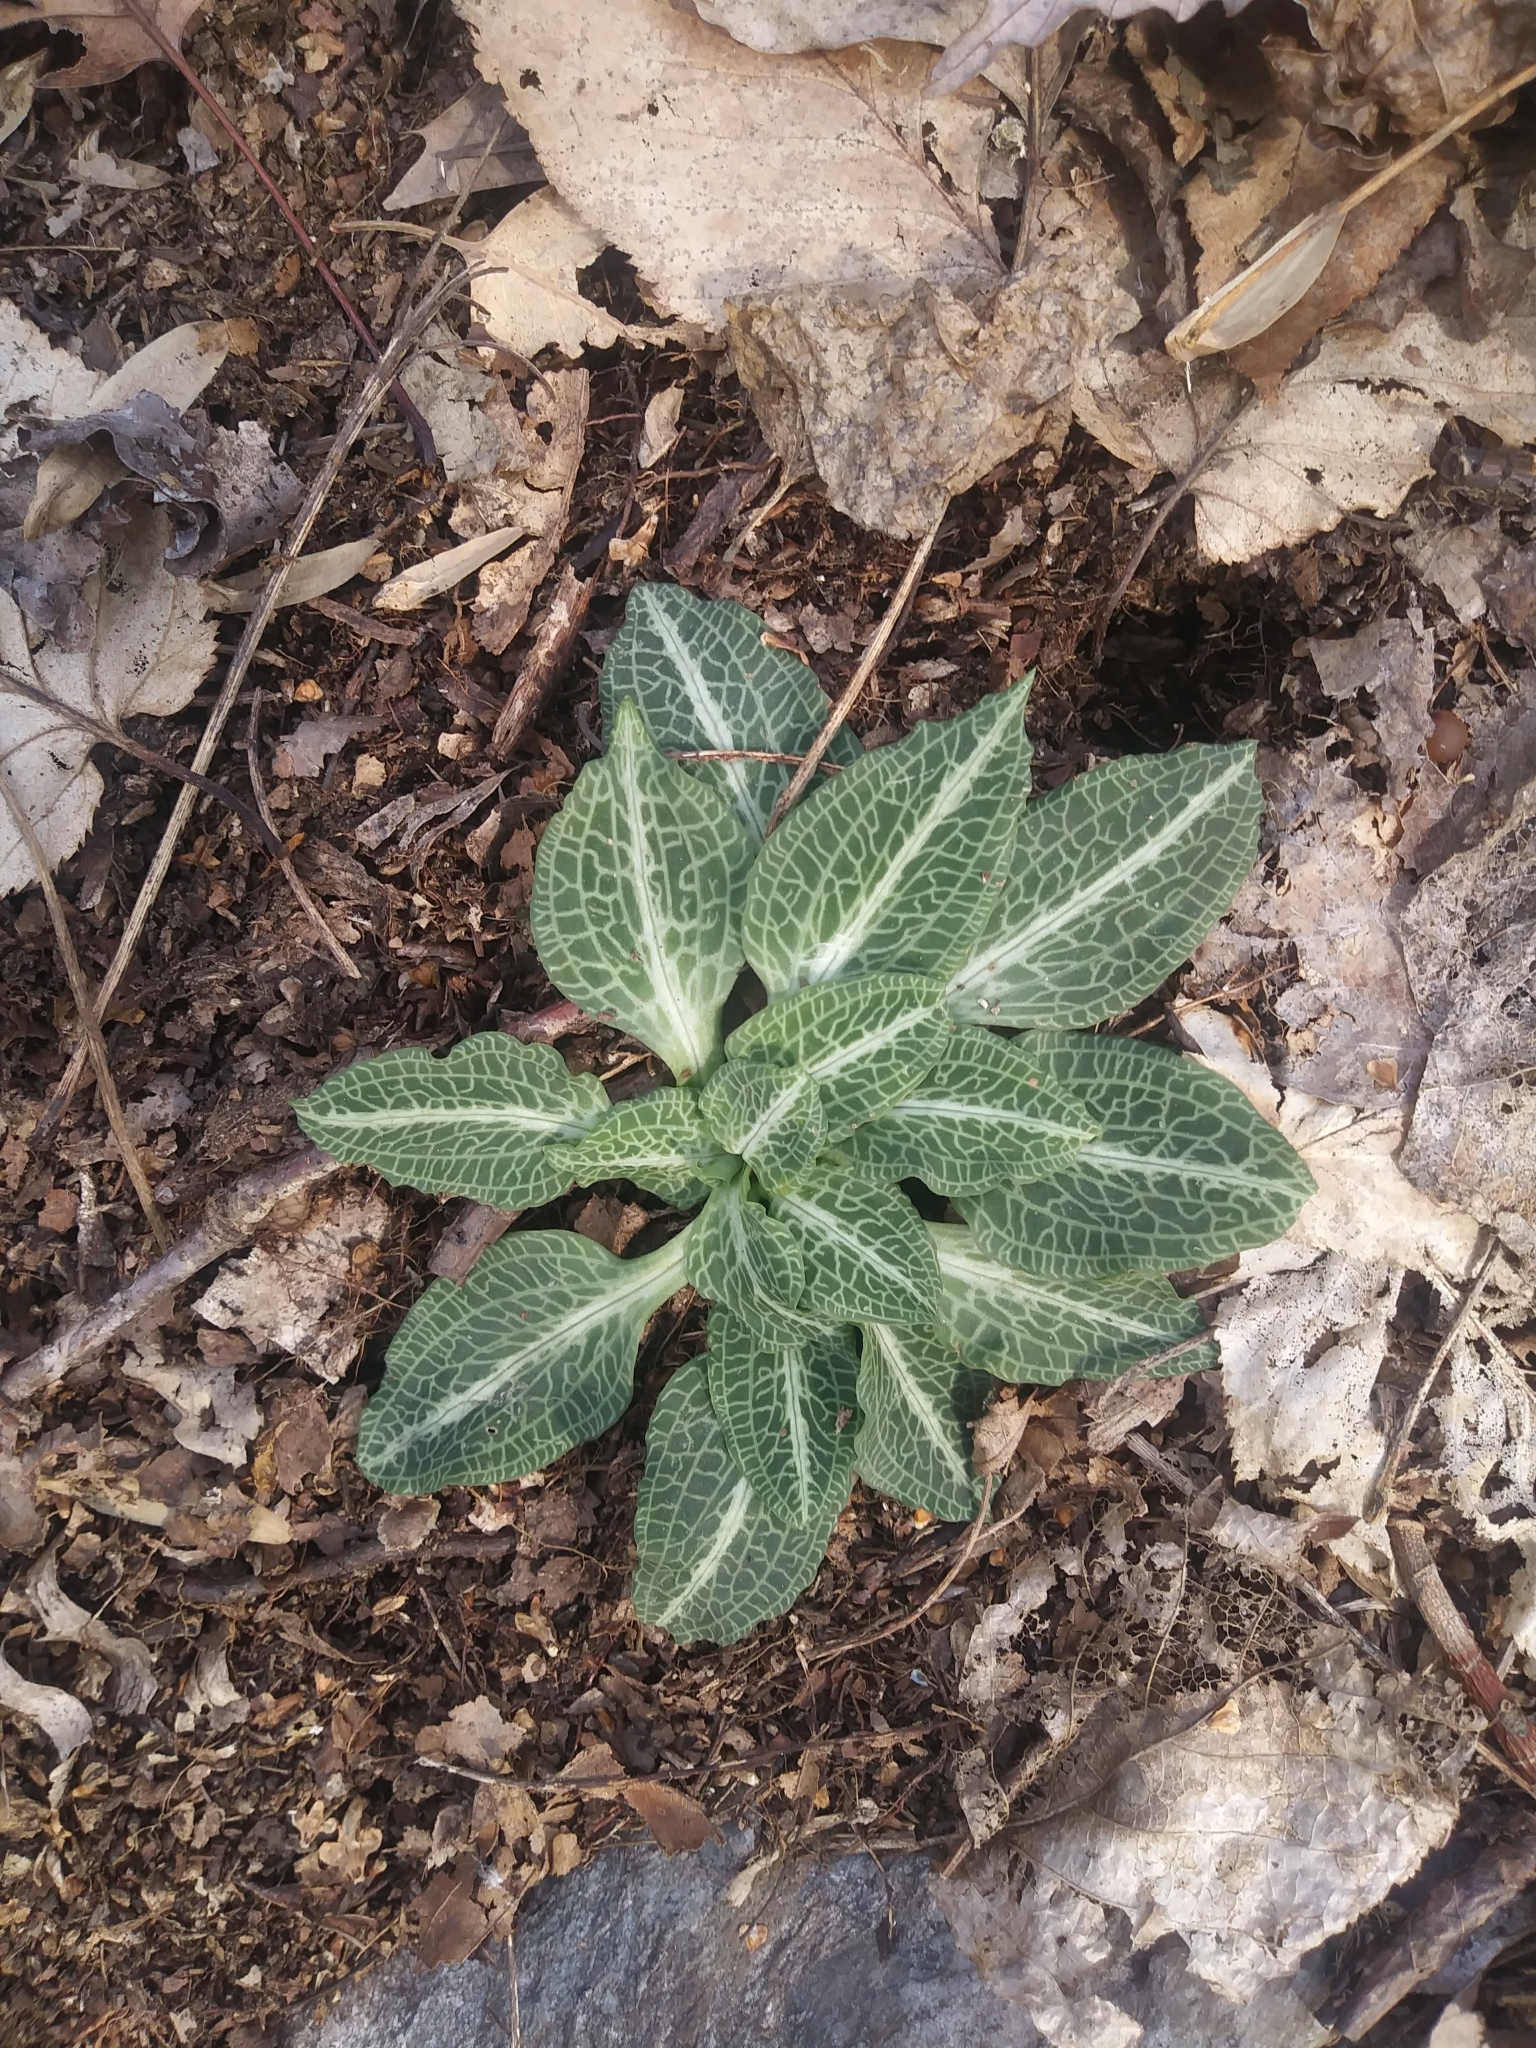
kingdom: Plantae
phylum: Tracheophyta
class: Liliopsida
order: Asparagales
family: Orchidaceae
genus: Goodyera
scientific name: Goodyera pubescens
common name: Downy rattlesnake-plantain
